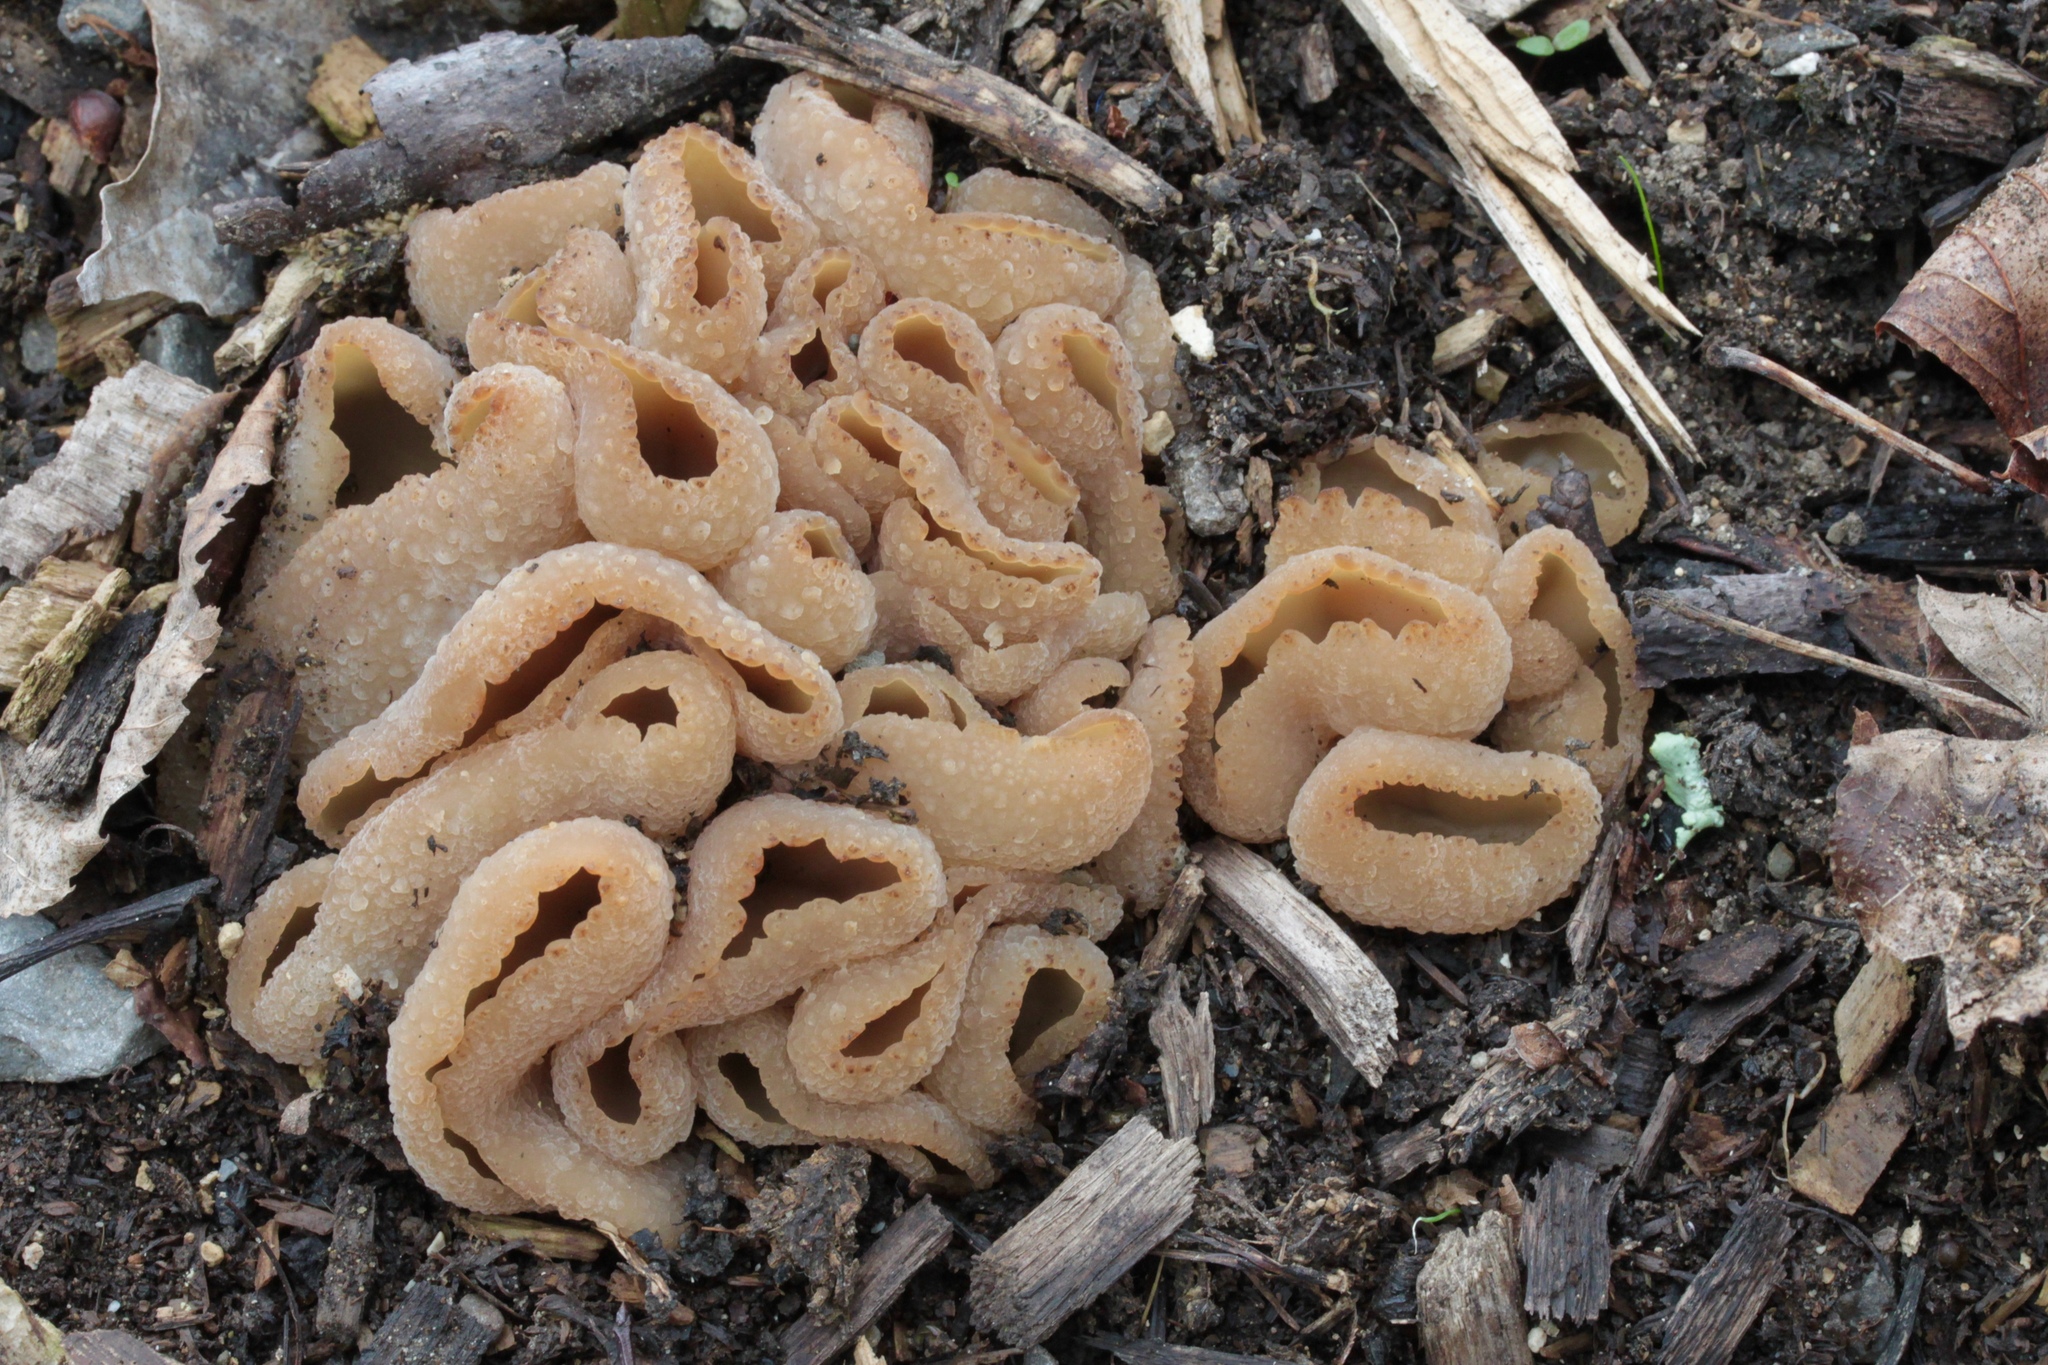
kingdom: Fungi
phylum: Ascomycota
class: Pezizomycetes
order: Pezizales
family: Pezizaceae
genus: Peziza
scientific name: Peziza vesiculosa
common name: Blistered cup
